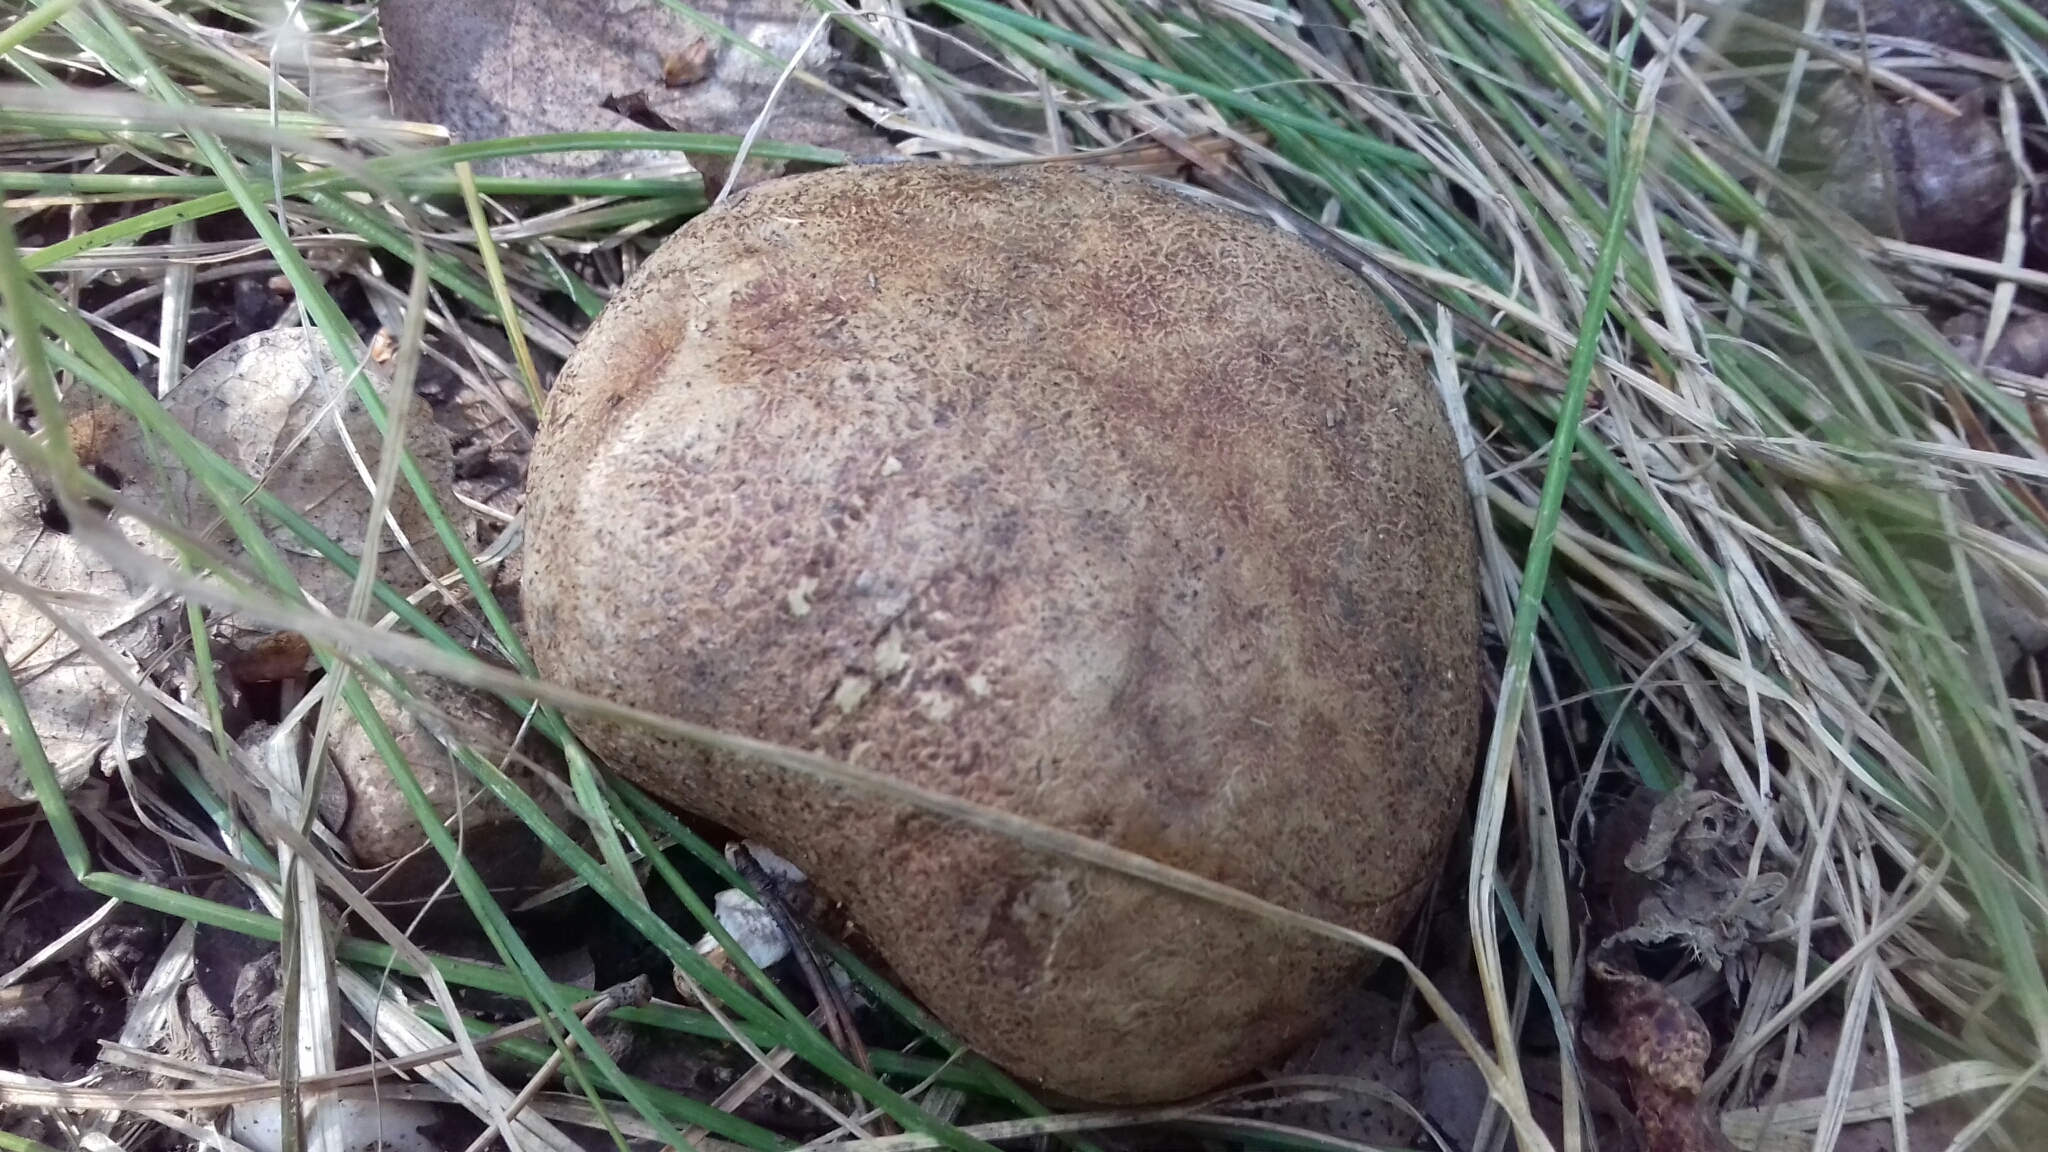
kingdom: Fungi
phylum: Basidiomycota
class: Agaricomycetes
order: Boletales
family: Sclerodermataceae
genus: Scleroderma
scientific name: Scleroderma citrinum
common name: Common earthball
